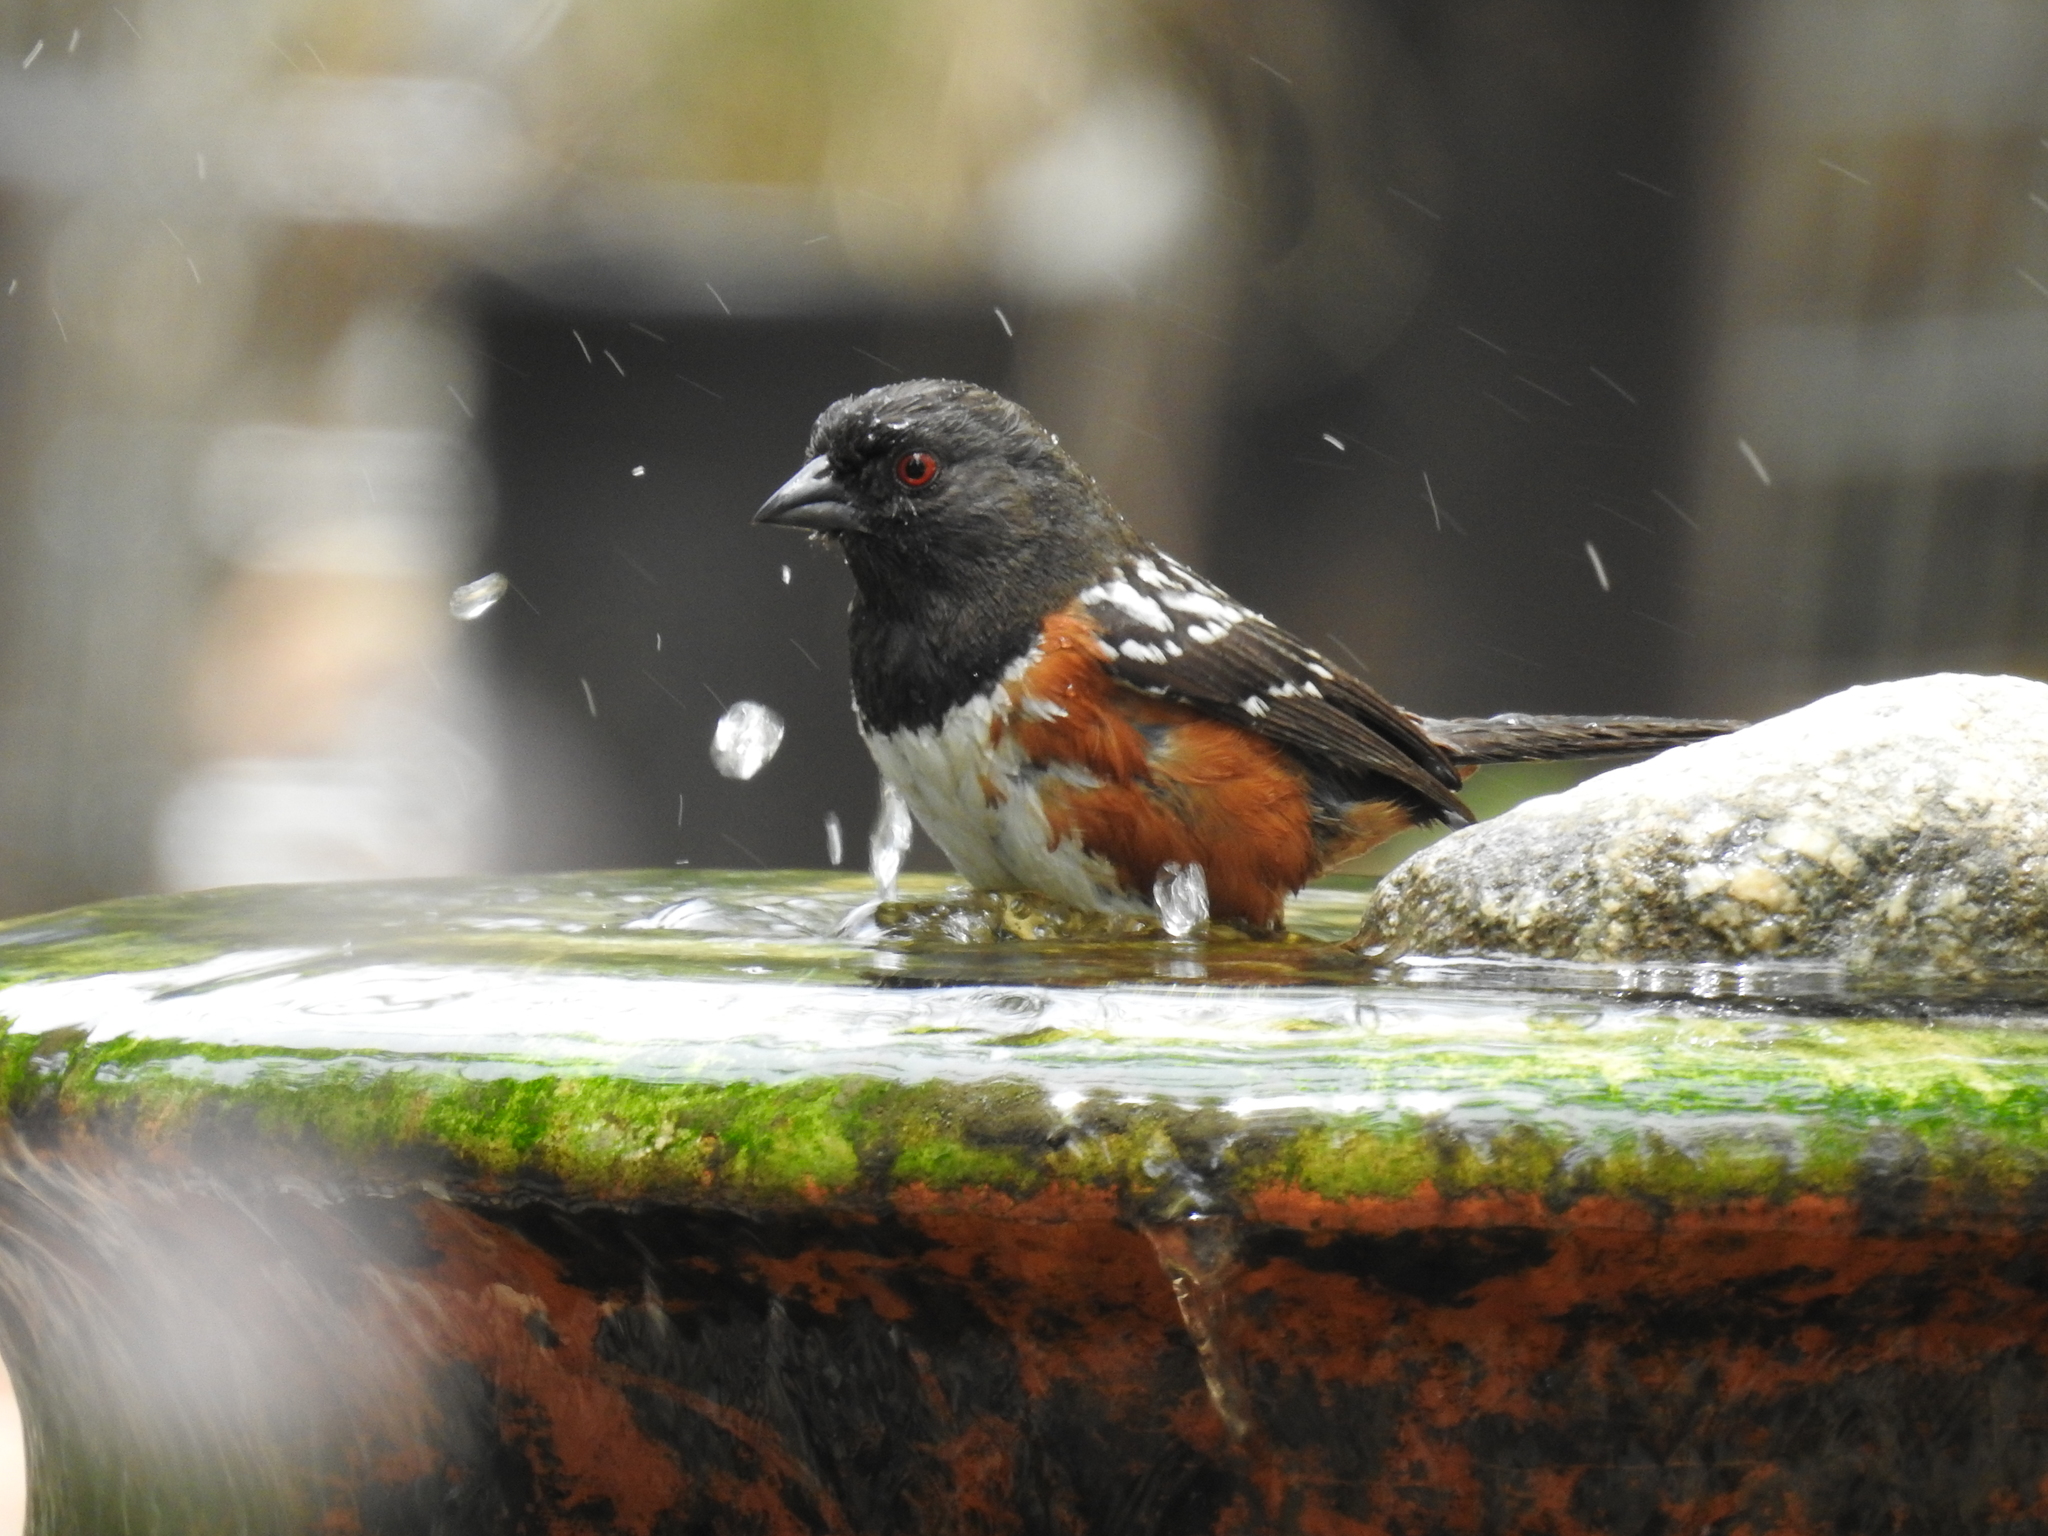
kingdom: Animalia
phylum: Chordata
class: Aves
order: Passeriformes
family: Passerellidae
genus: Pipilo
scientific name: Pipilo maculatus
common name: Spotted towhee
